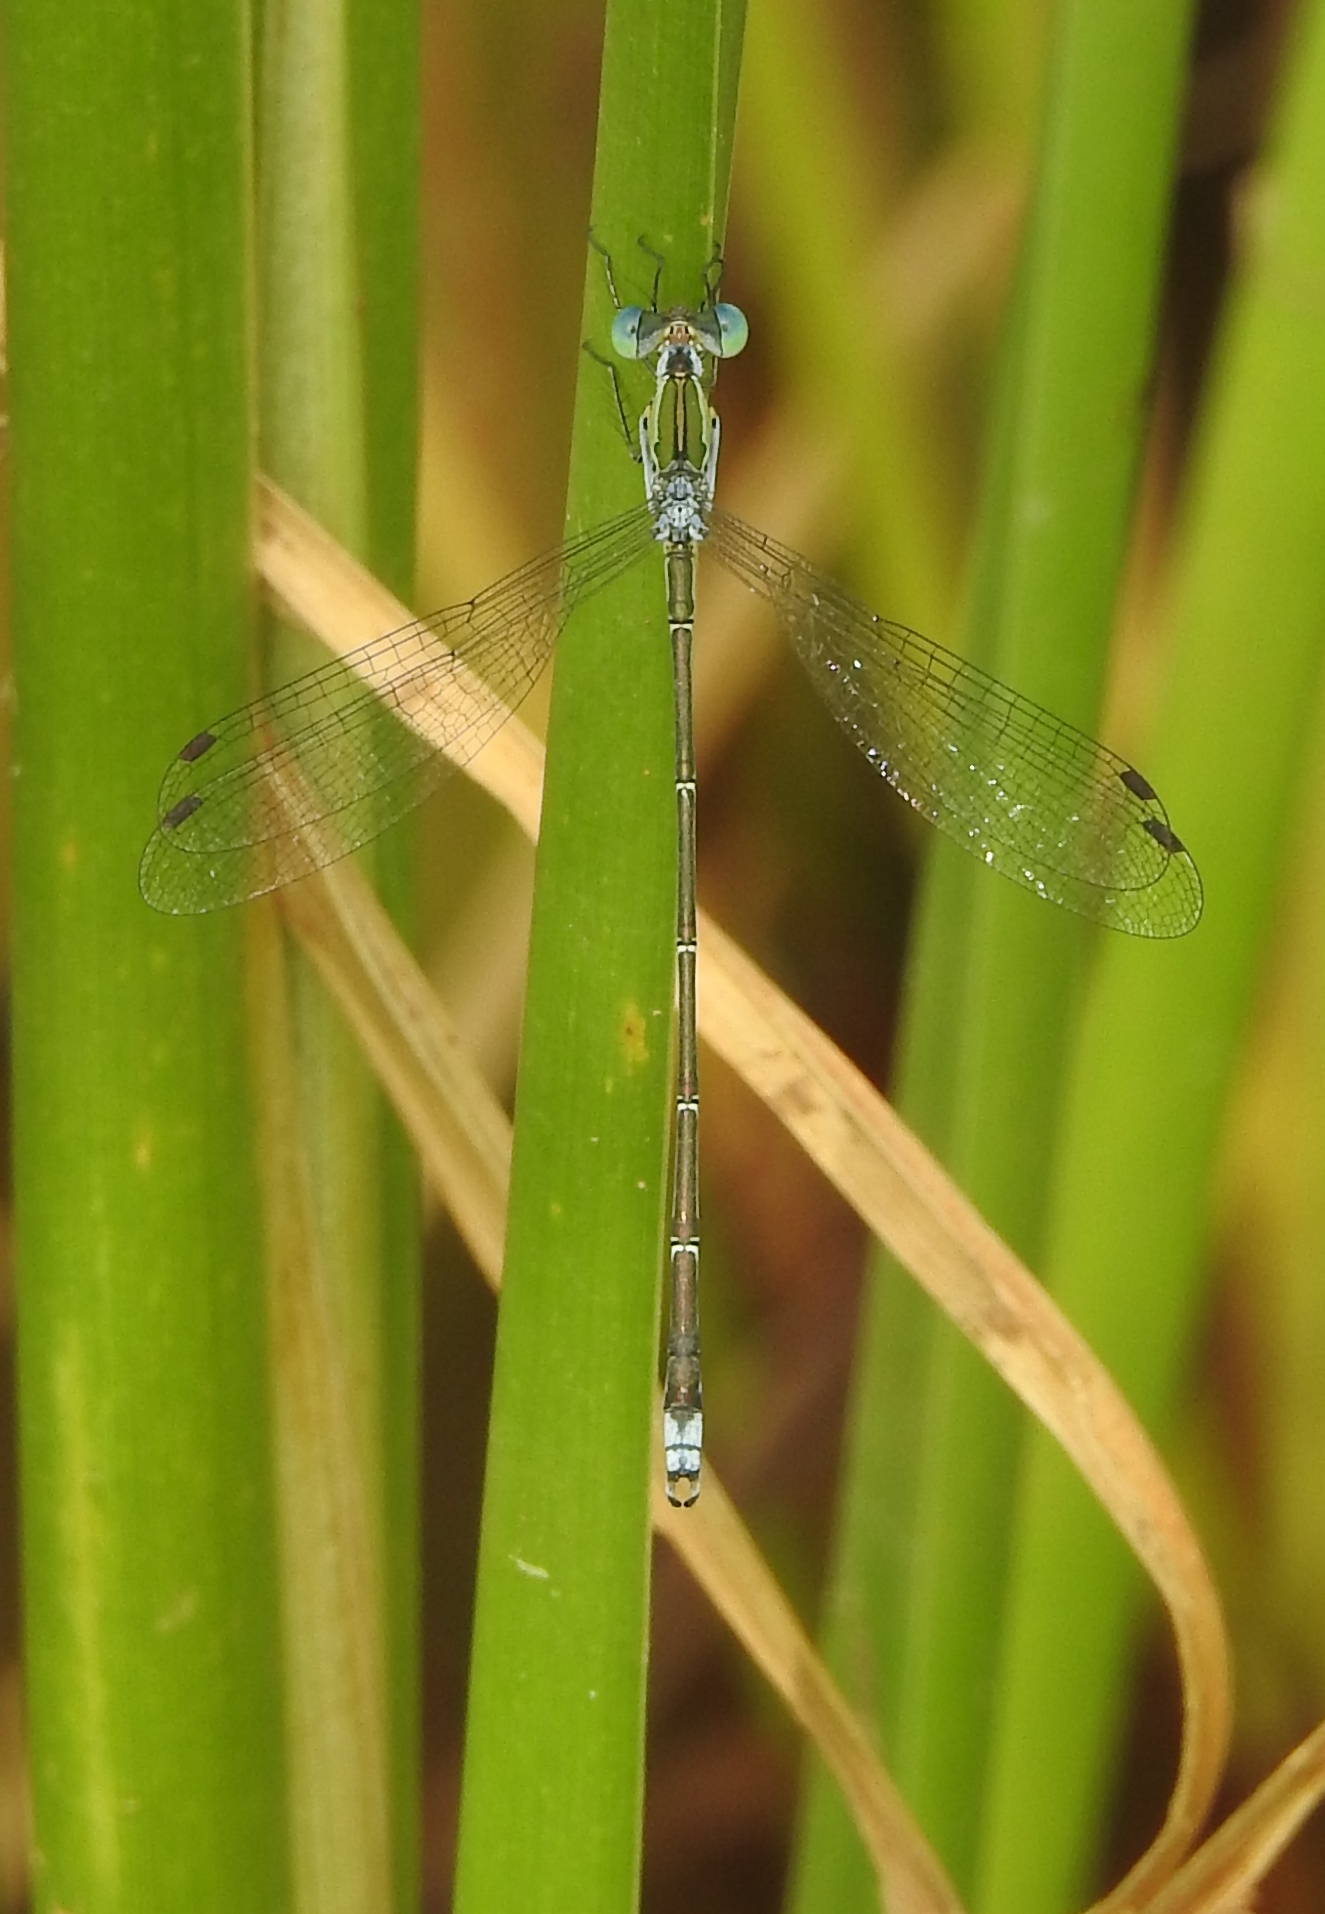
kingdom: Animalia
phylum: Arthropoda
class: Insecta
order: Odonata
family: Lestidae
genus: Lestes
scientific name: Lestes elatus
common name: Emerald spreadwing
